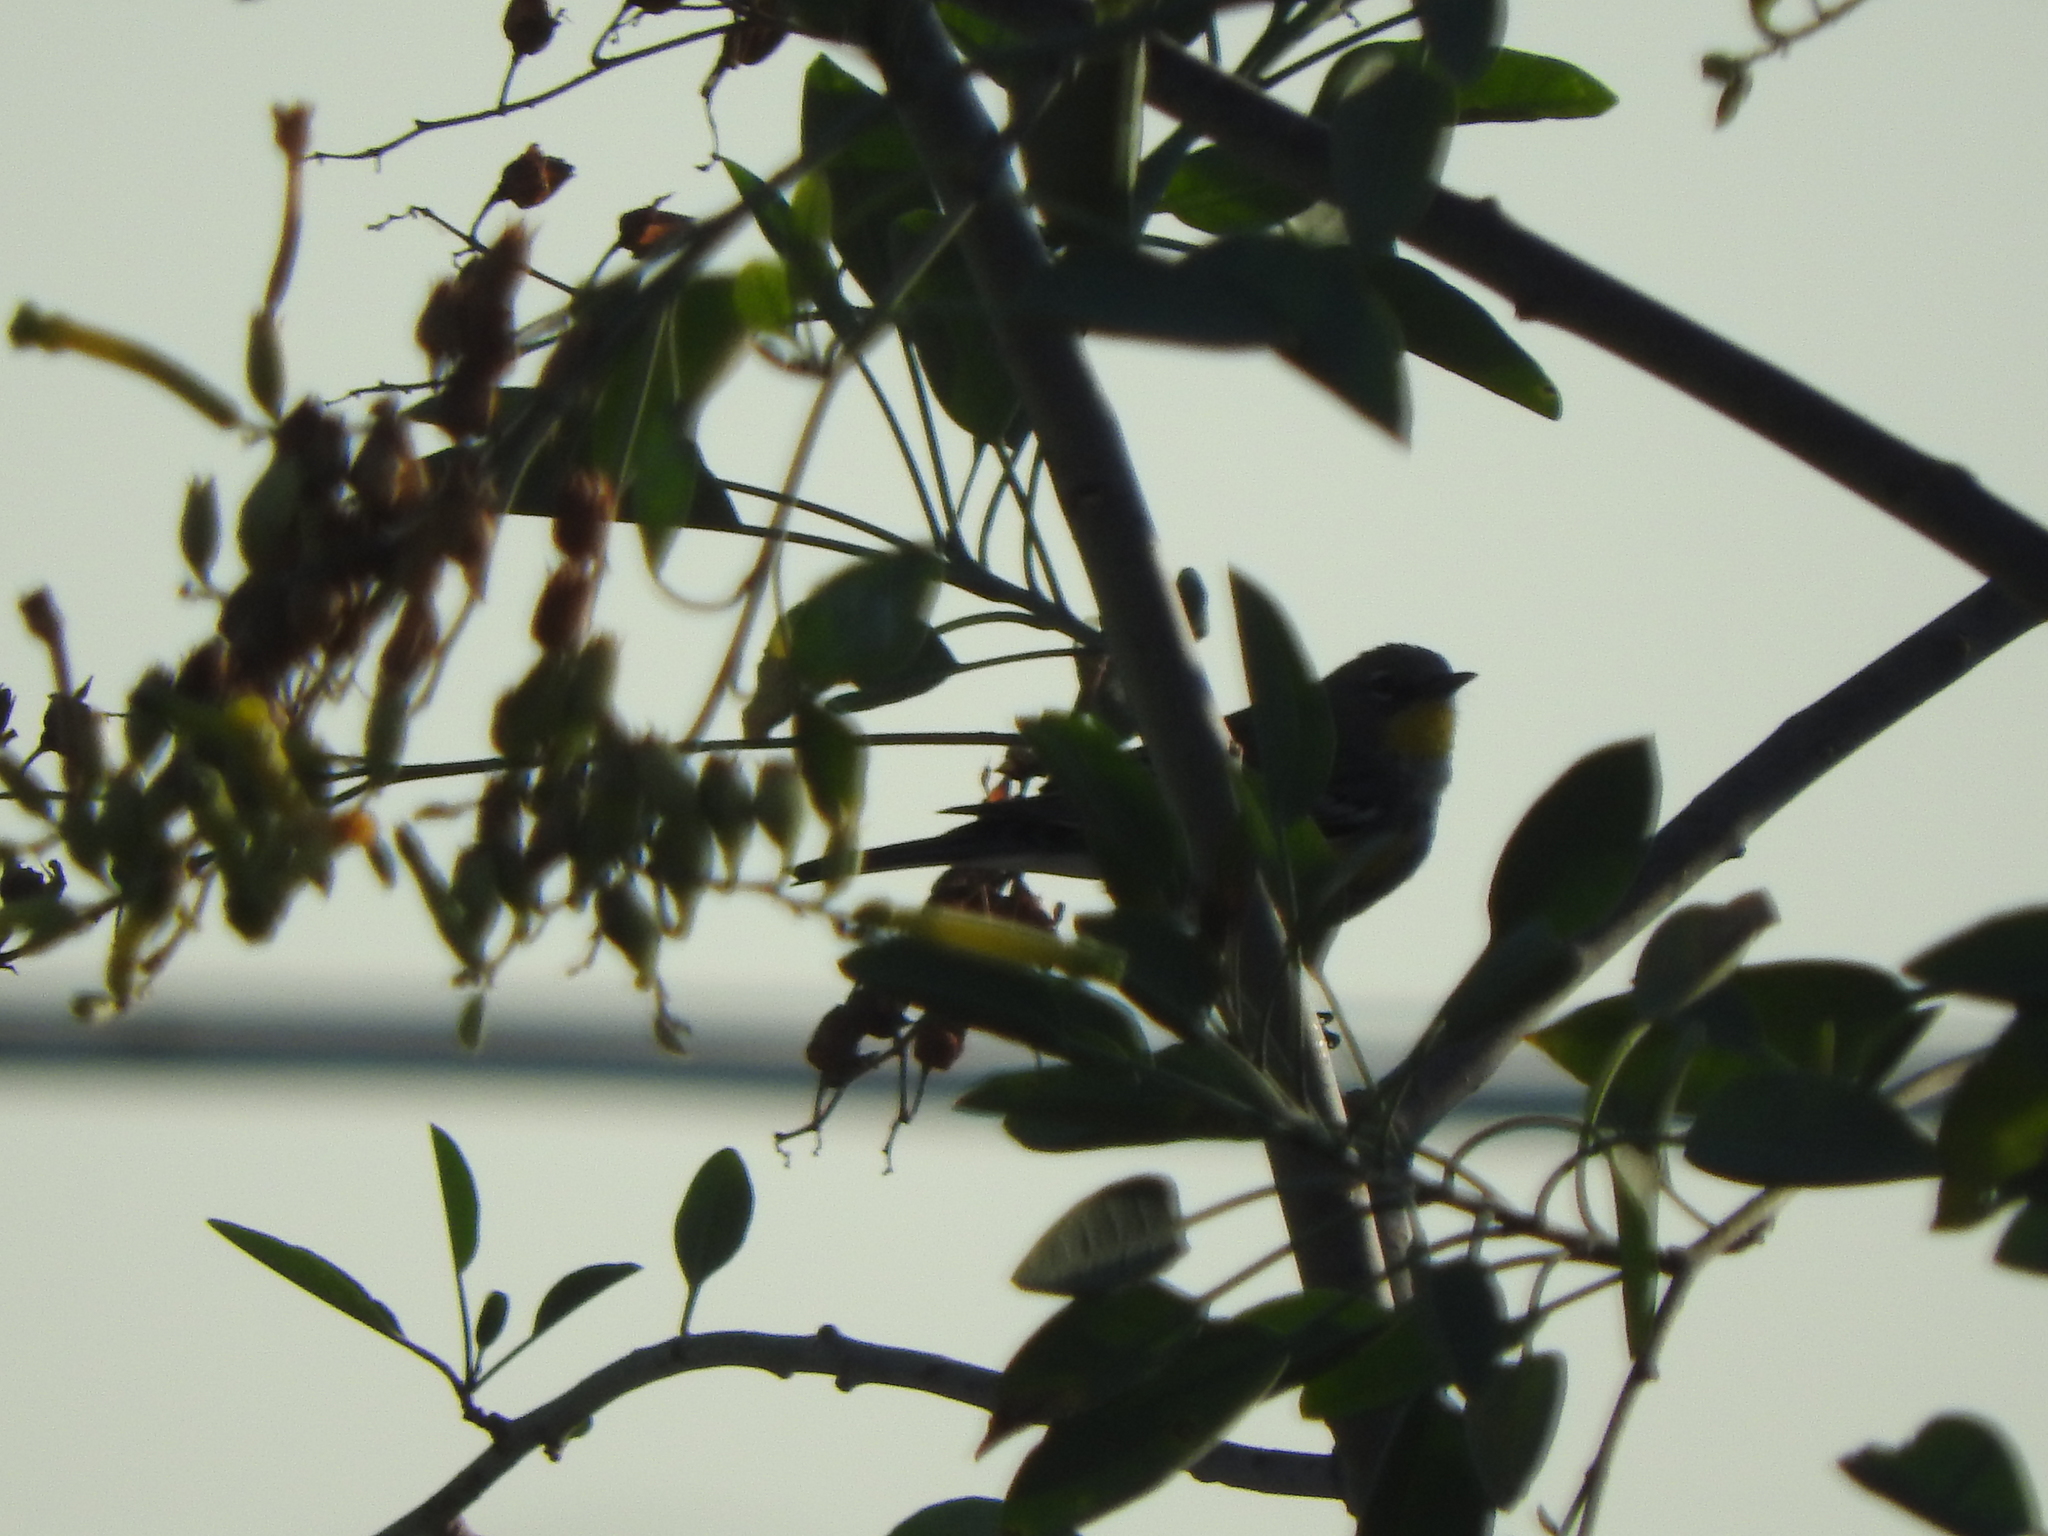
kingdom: Animalia
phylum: Chordata
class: Aves
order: Passeriformes
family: Parulidae
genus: Setophaga
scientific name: Setophaga coronata
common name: Myrtle warbler
